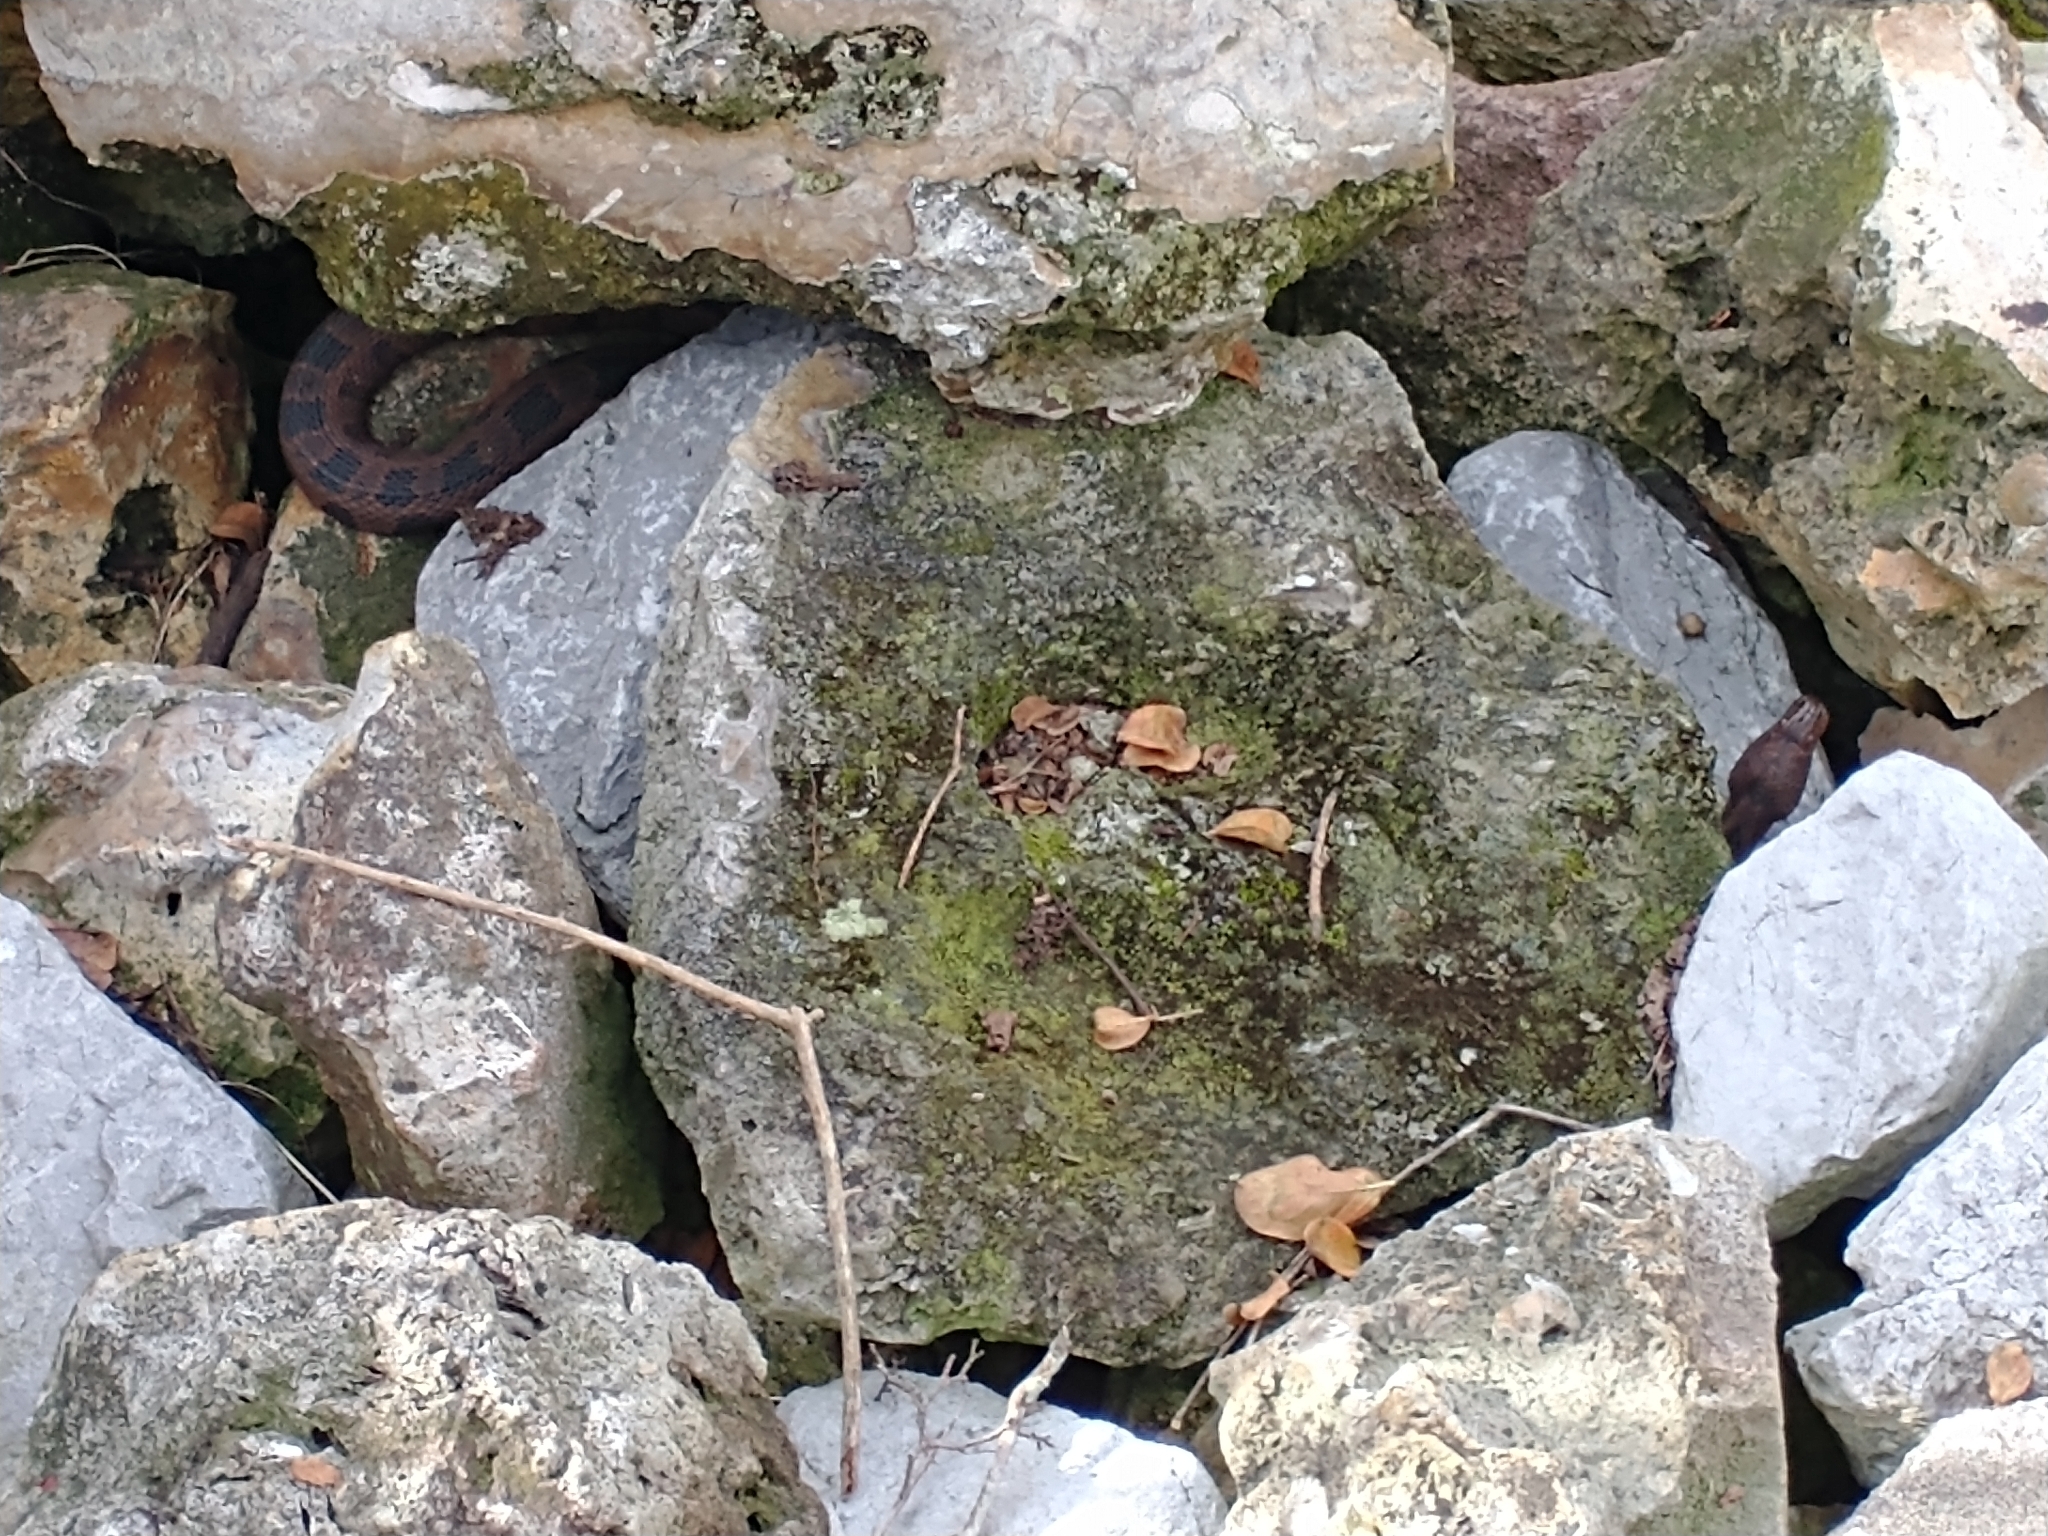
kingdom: Animalia
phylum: Chordata
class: Squamata
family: Colubridae
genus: Nerodia
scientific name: Nerodia taxispilota
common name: Brown water snake
